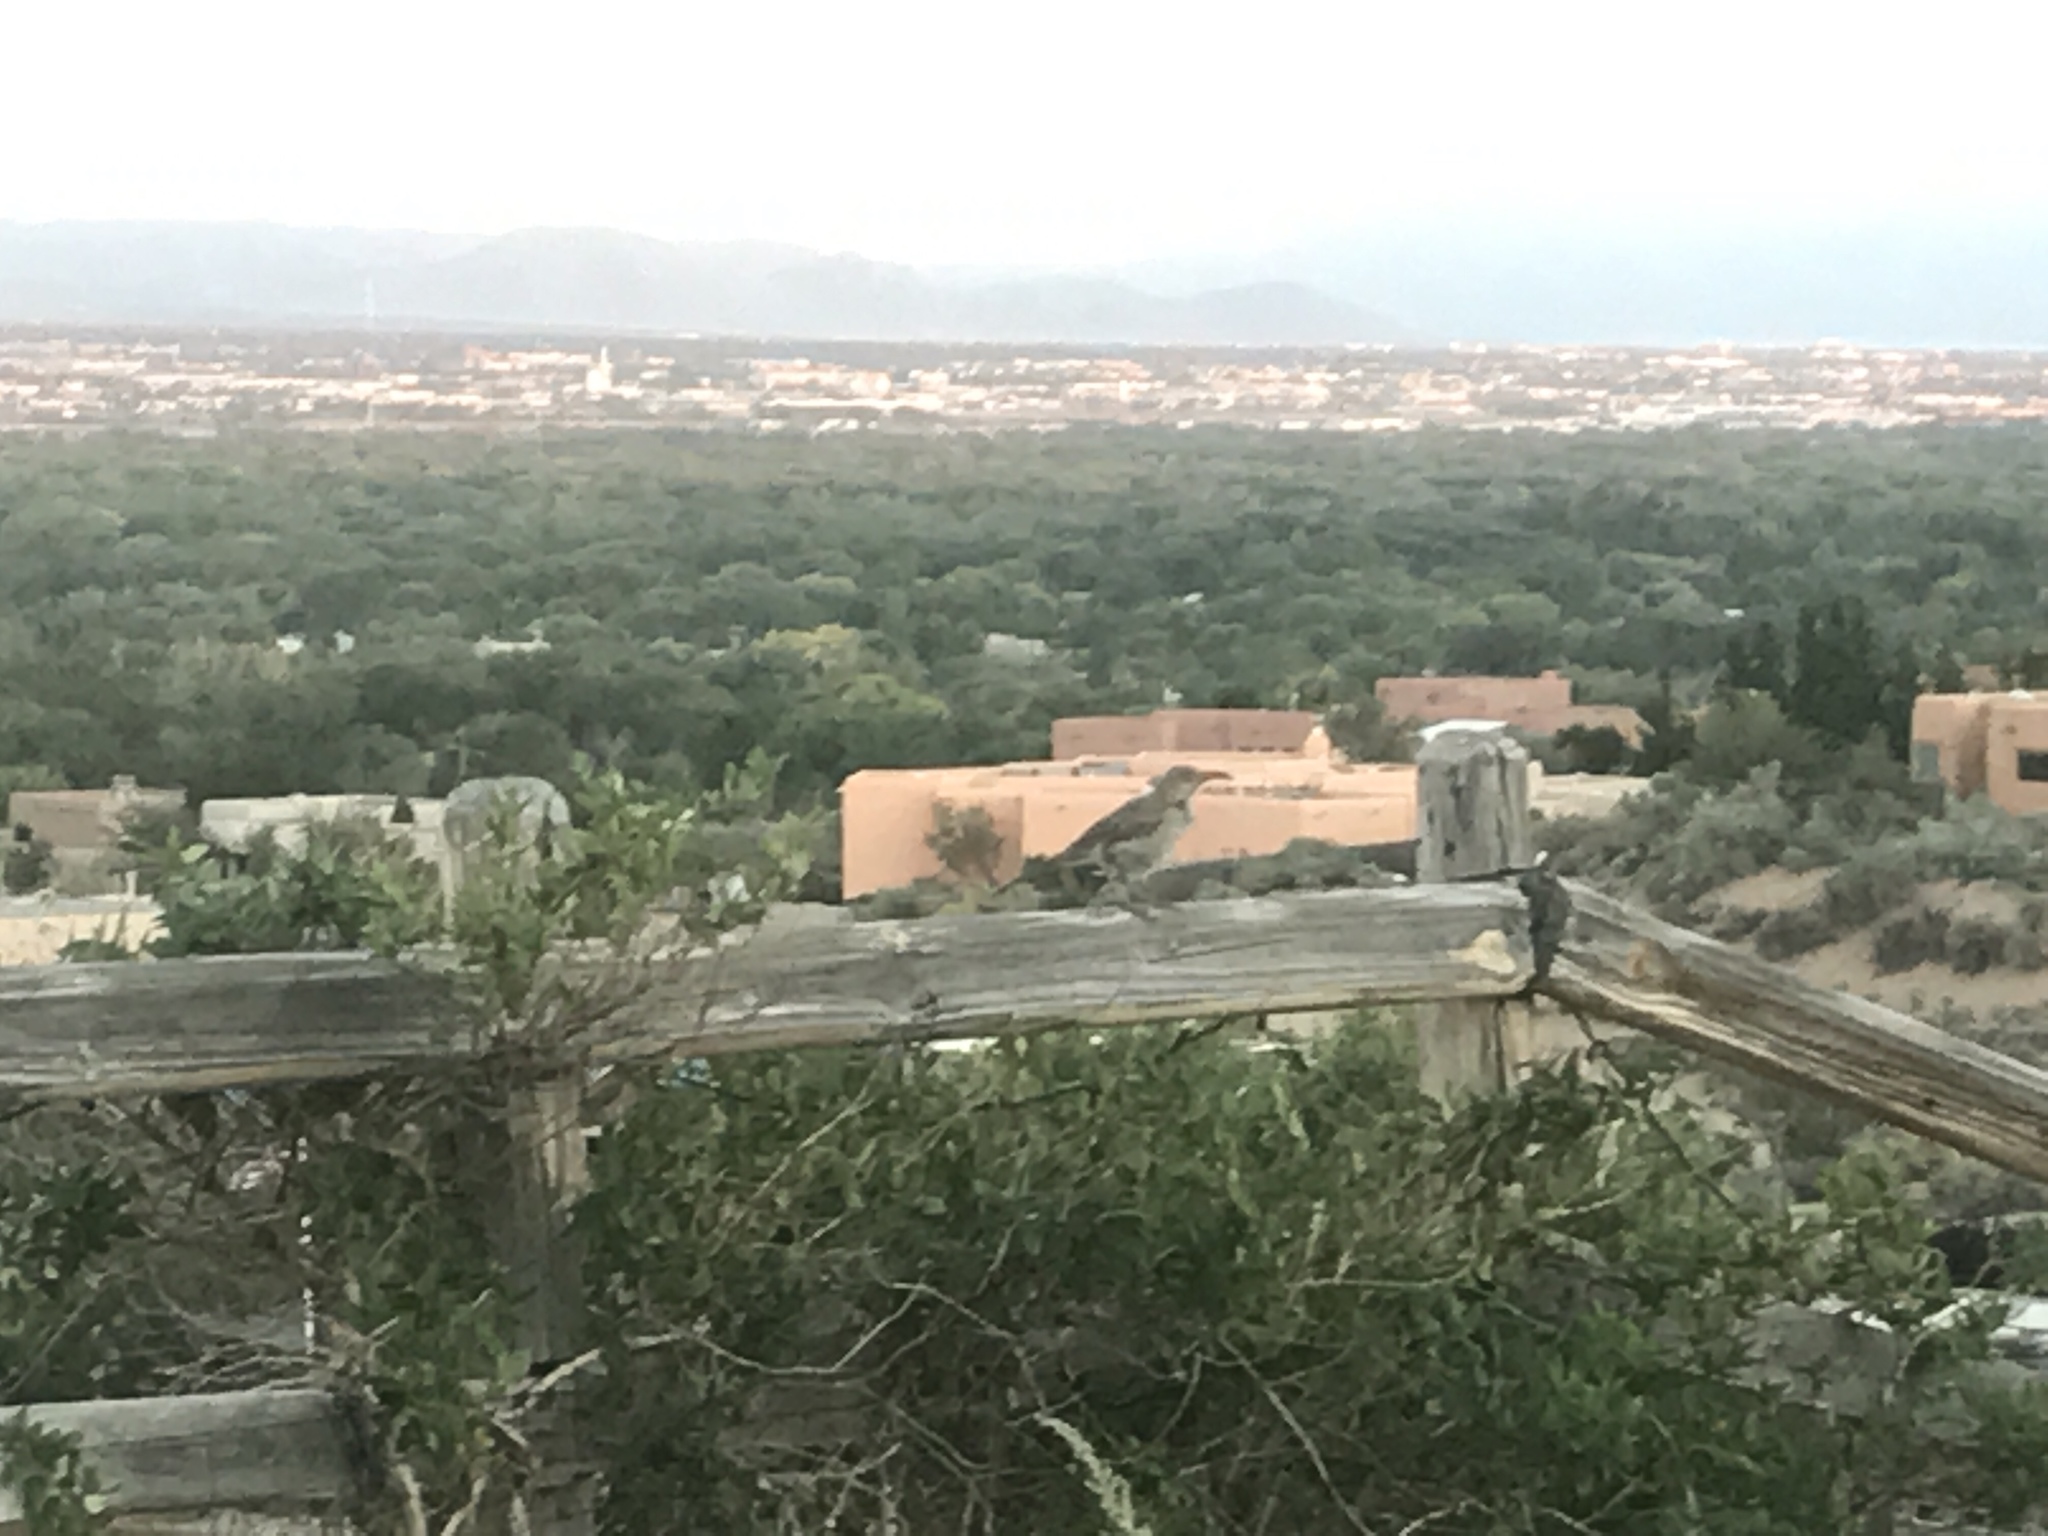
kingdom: Animalia
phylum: Chordata
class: Aves
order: Passeriformes
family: Mimidae
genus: Toxostoma
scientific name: Toxostoma curvirostre
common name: Curve-billed thrasher
